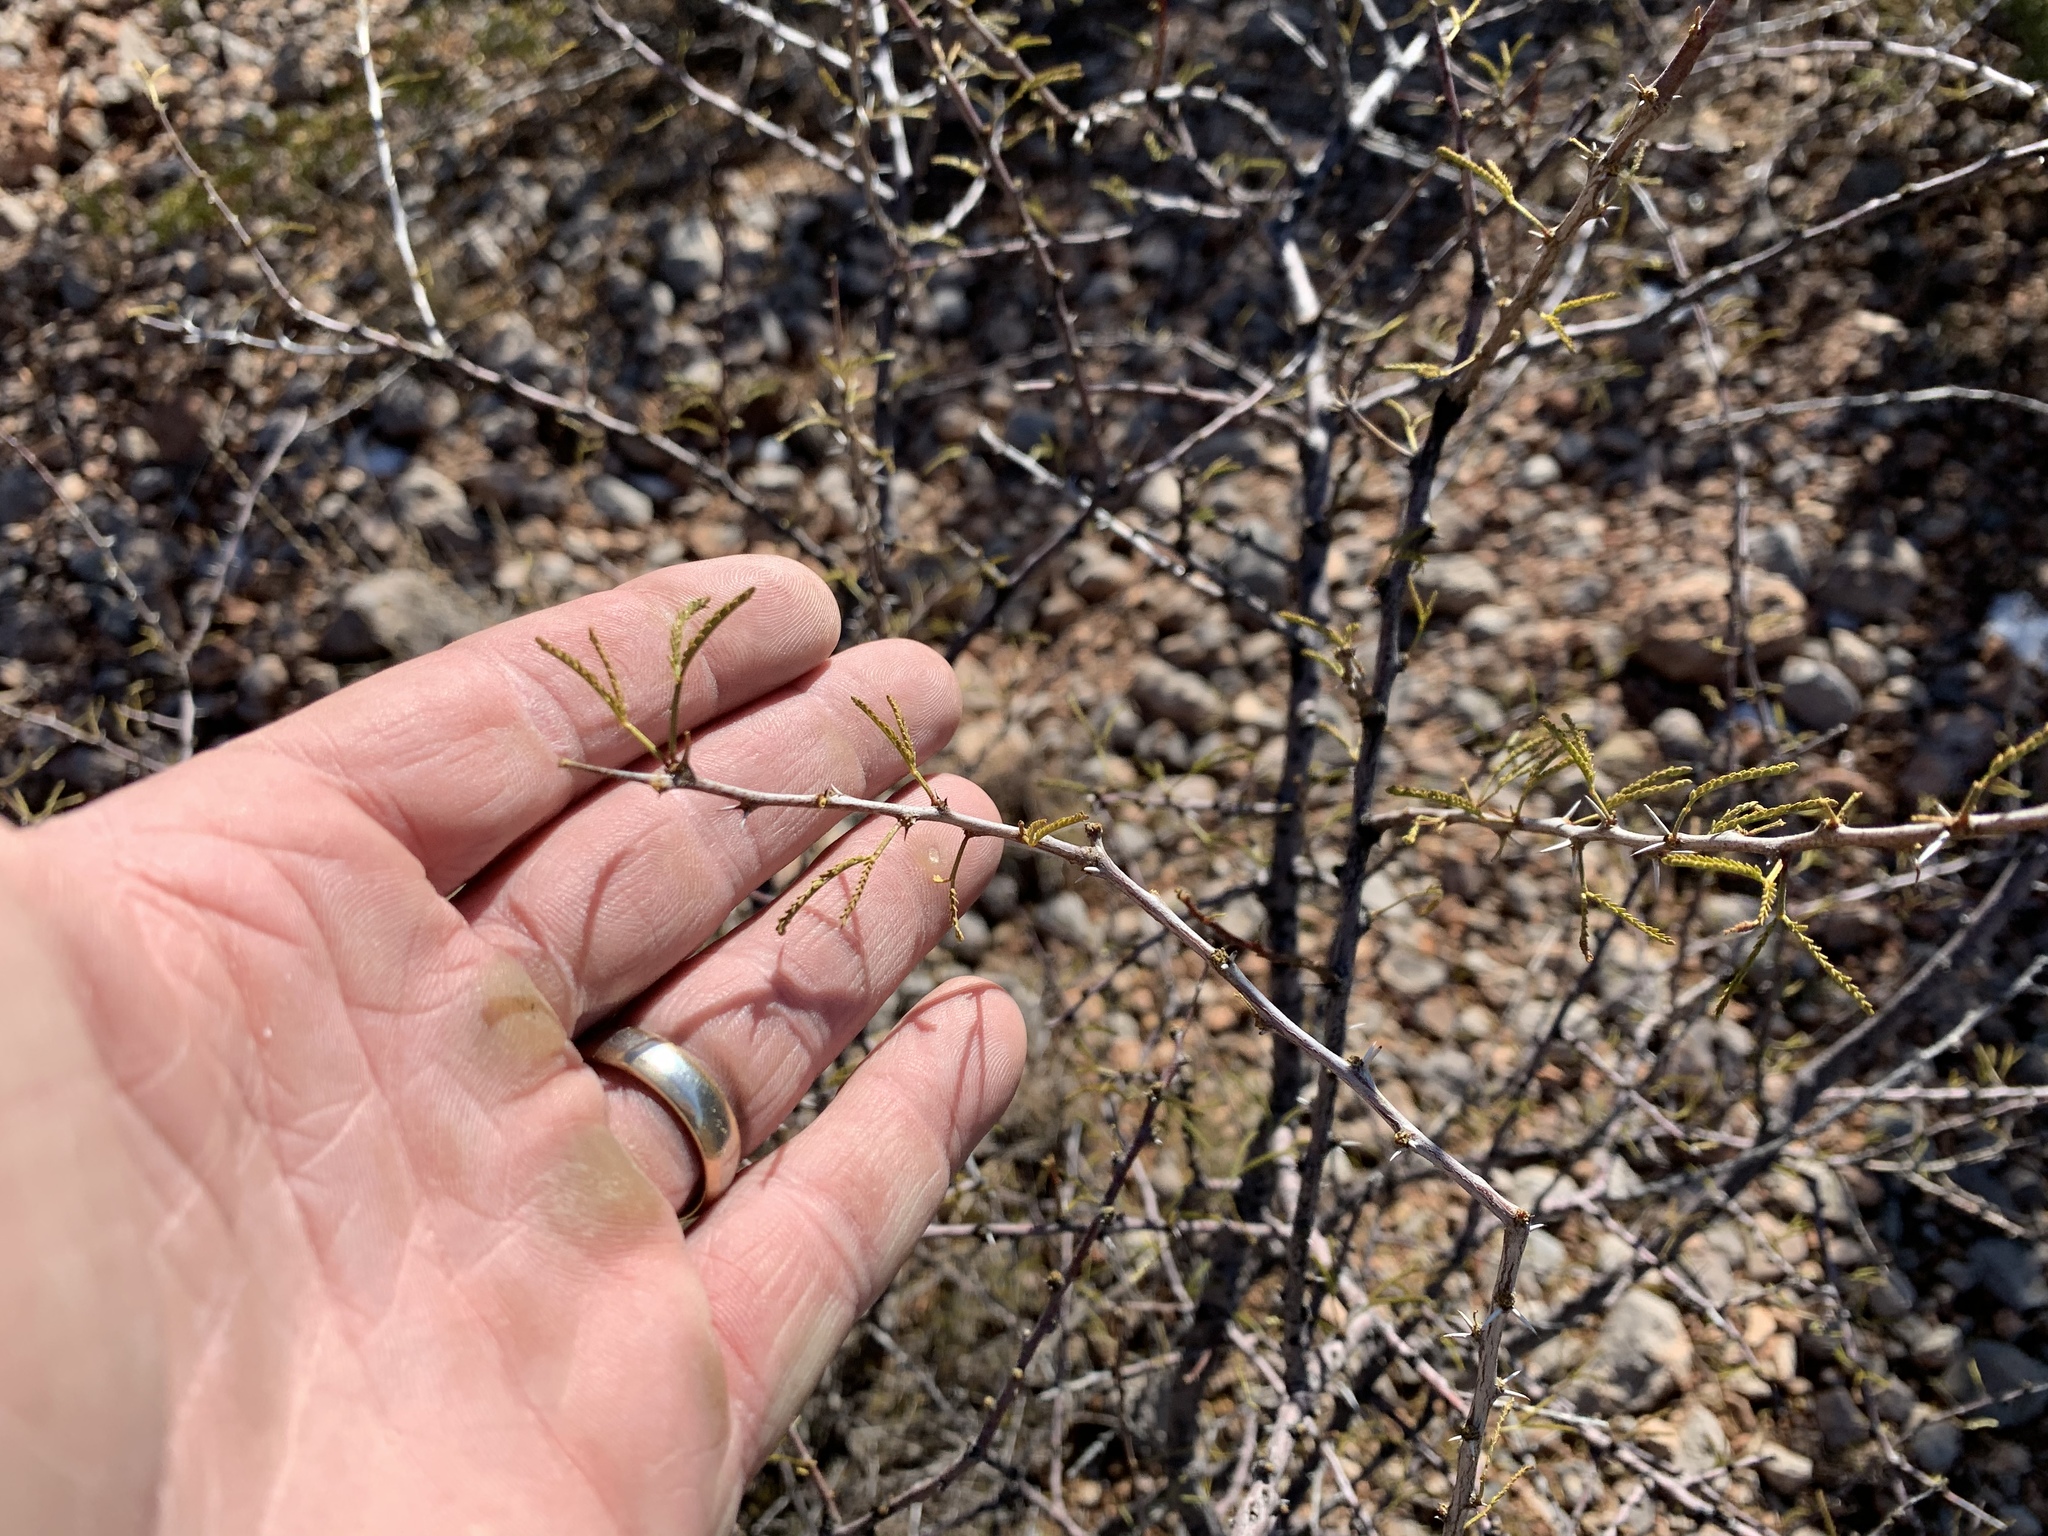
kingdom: Plantae
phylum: Tracheophyta
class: Magnoliopsida
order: Fabales
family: Fabaceae
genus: Vachellia
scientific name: Vachellia constricta
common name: Mescat acacia
